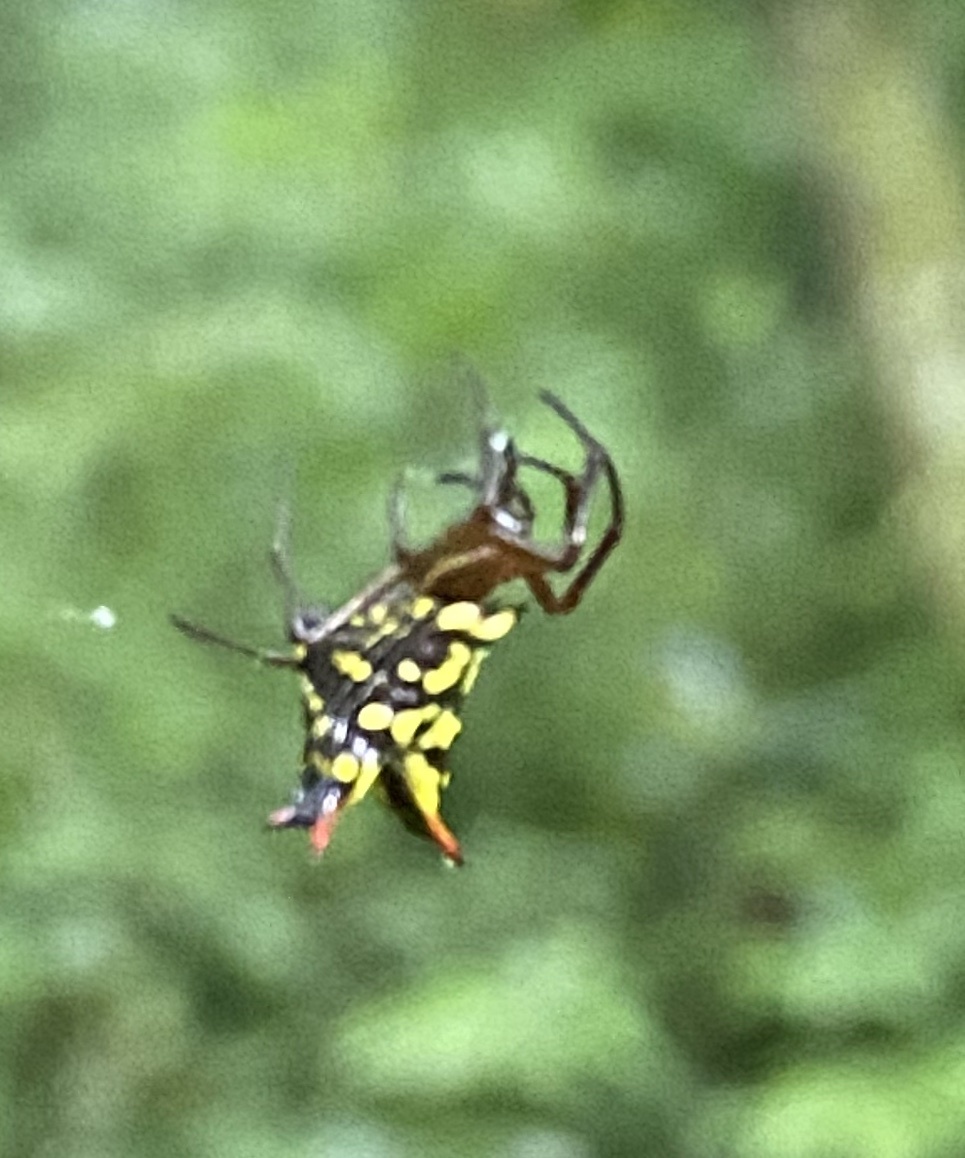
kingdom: Animalia
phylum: Arthropoda
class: Arachnida
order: Araneae
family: Araneidae
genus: Micrathena
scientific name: Micrathena lucasi
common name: Orb weavers
